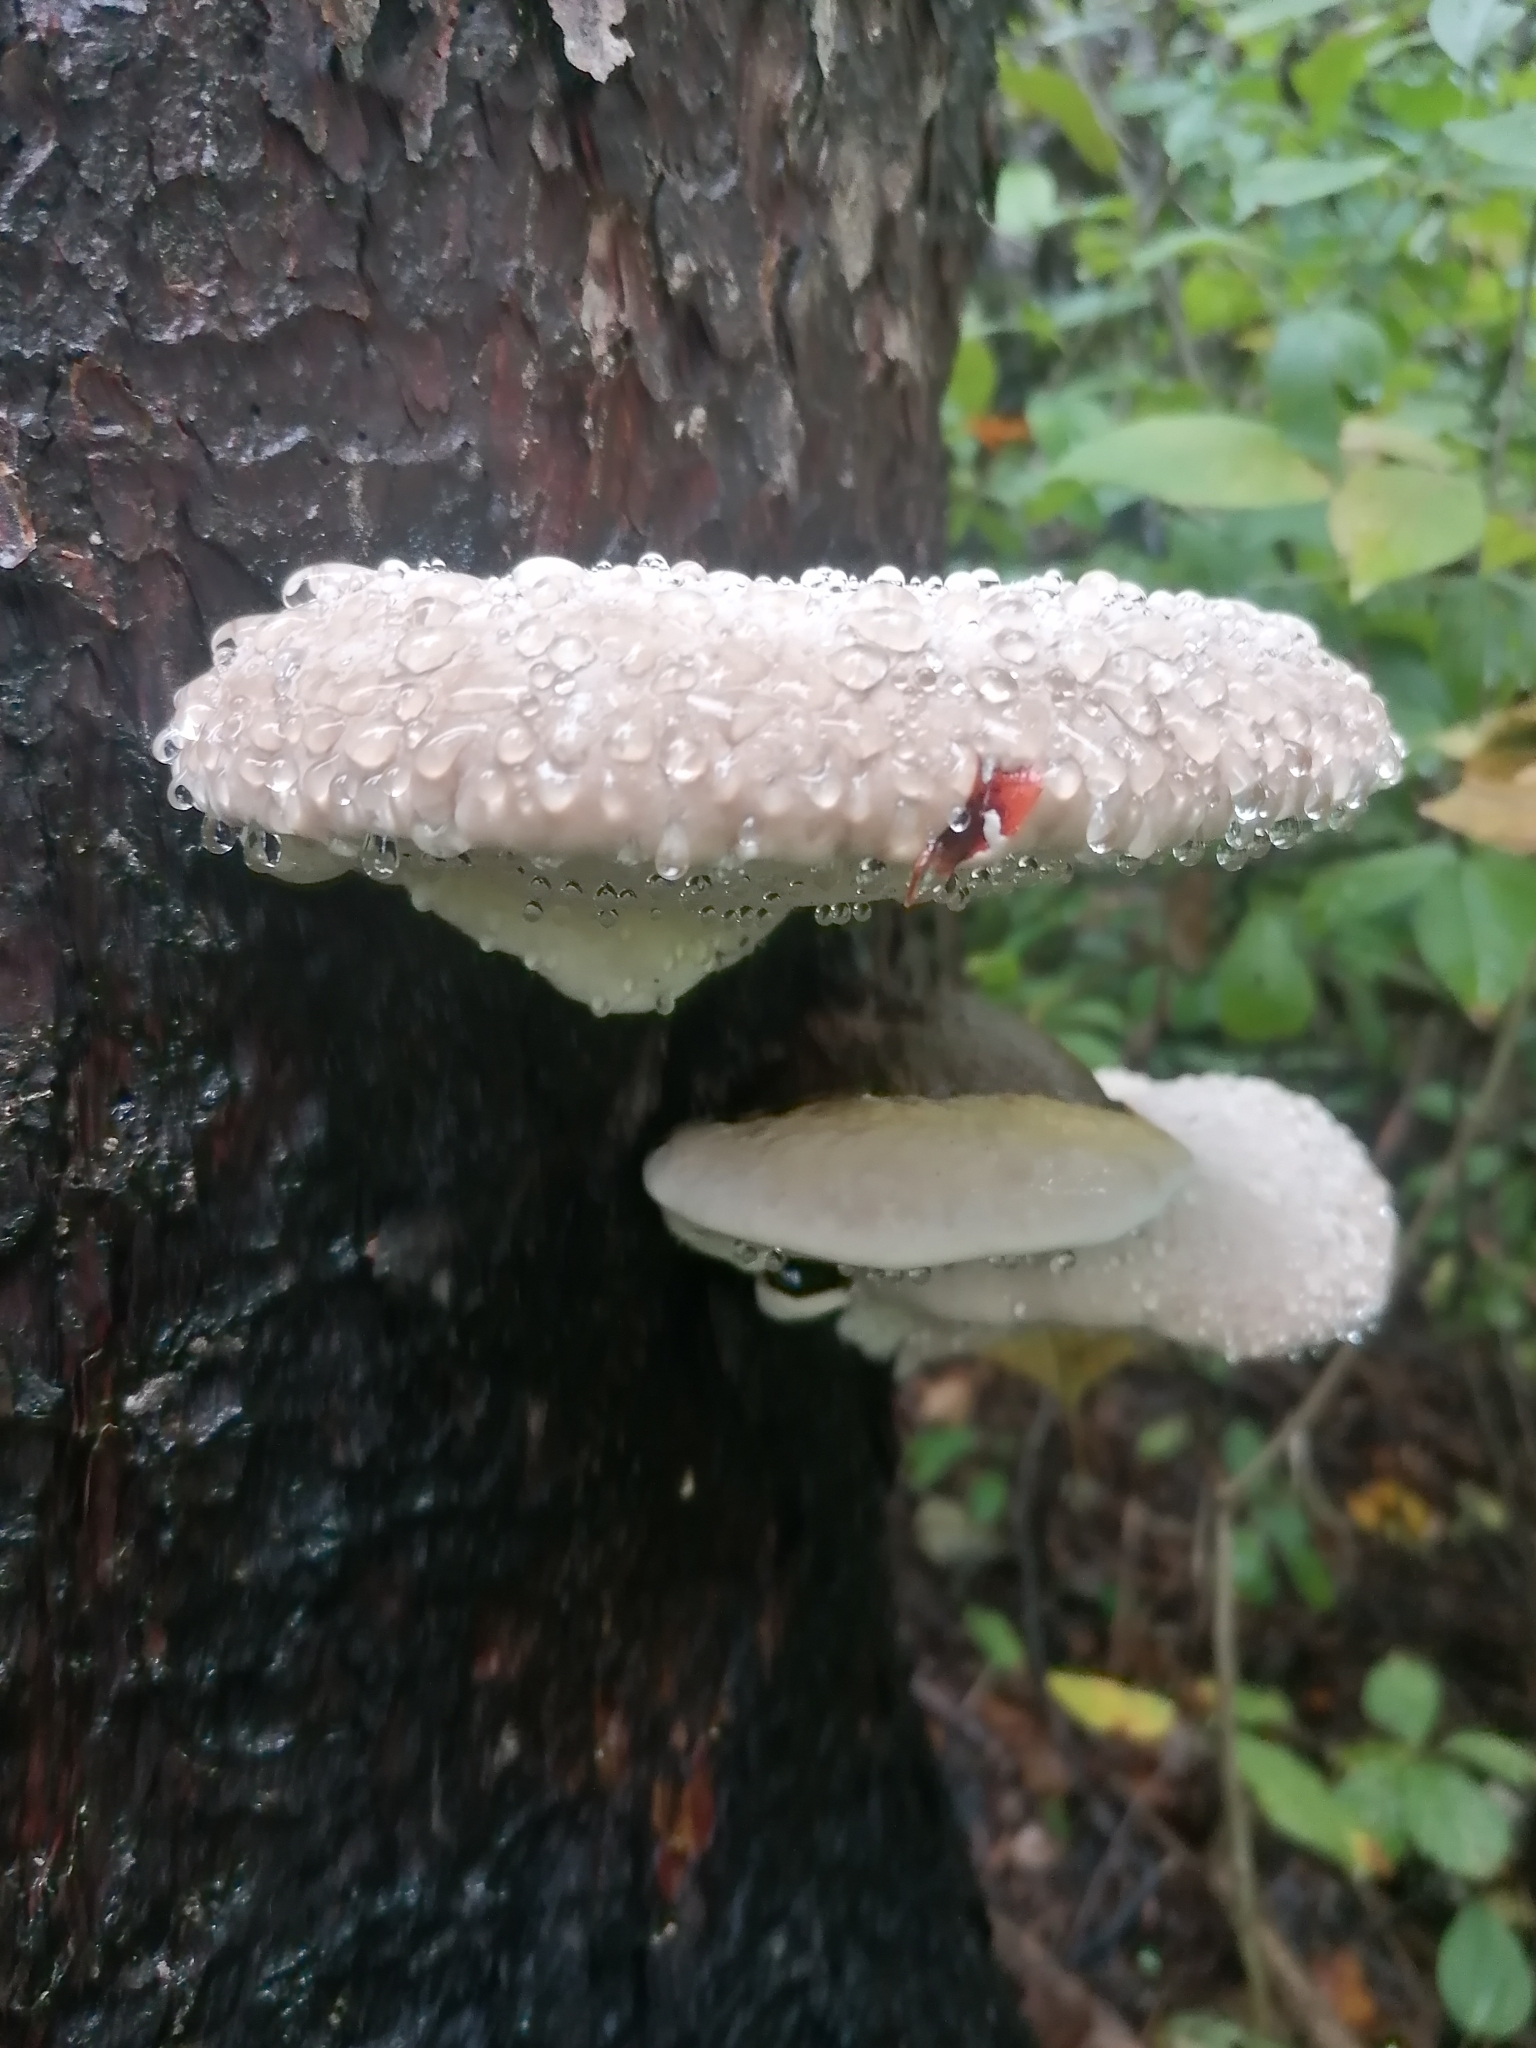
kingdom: Fungi
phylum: Basidiomycota
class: Agaricomycetes
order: Polyporales
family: Fomitopsidaceae
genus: Fomitopsis
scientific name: Fomitopsis mounceae
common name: Northern red belt
